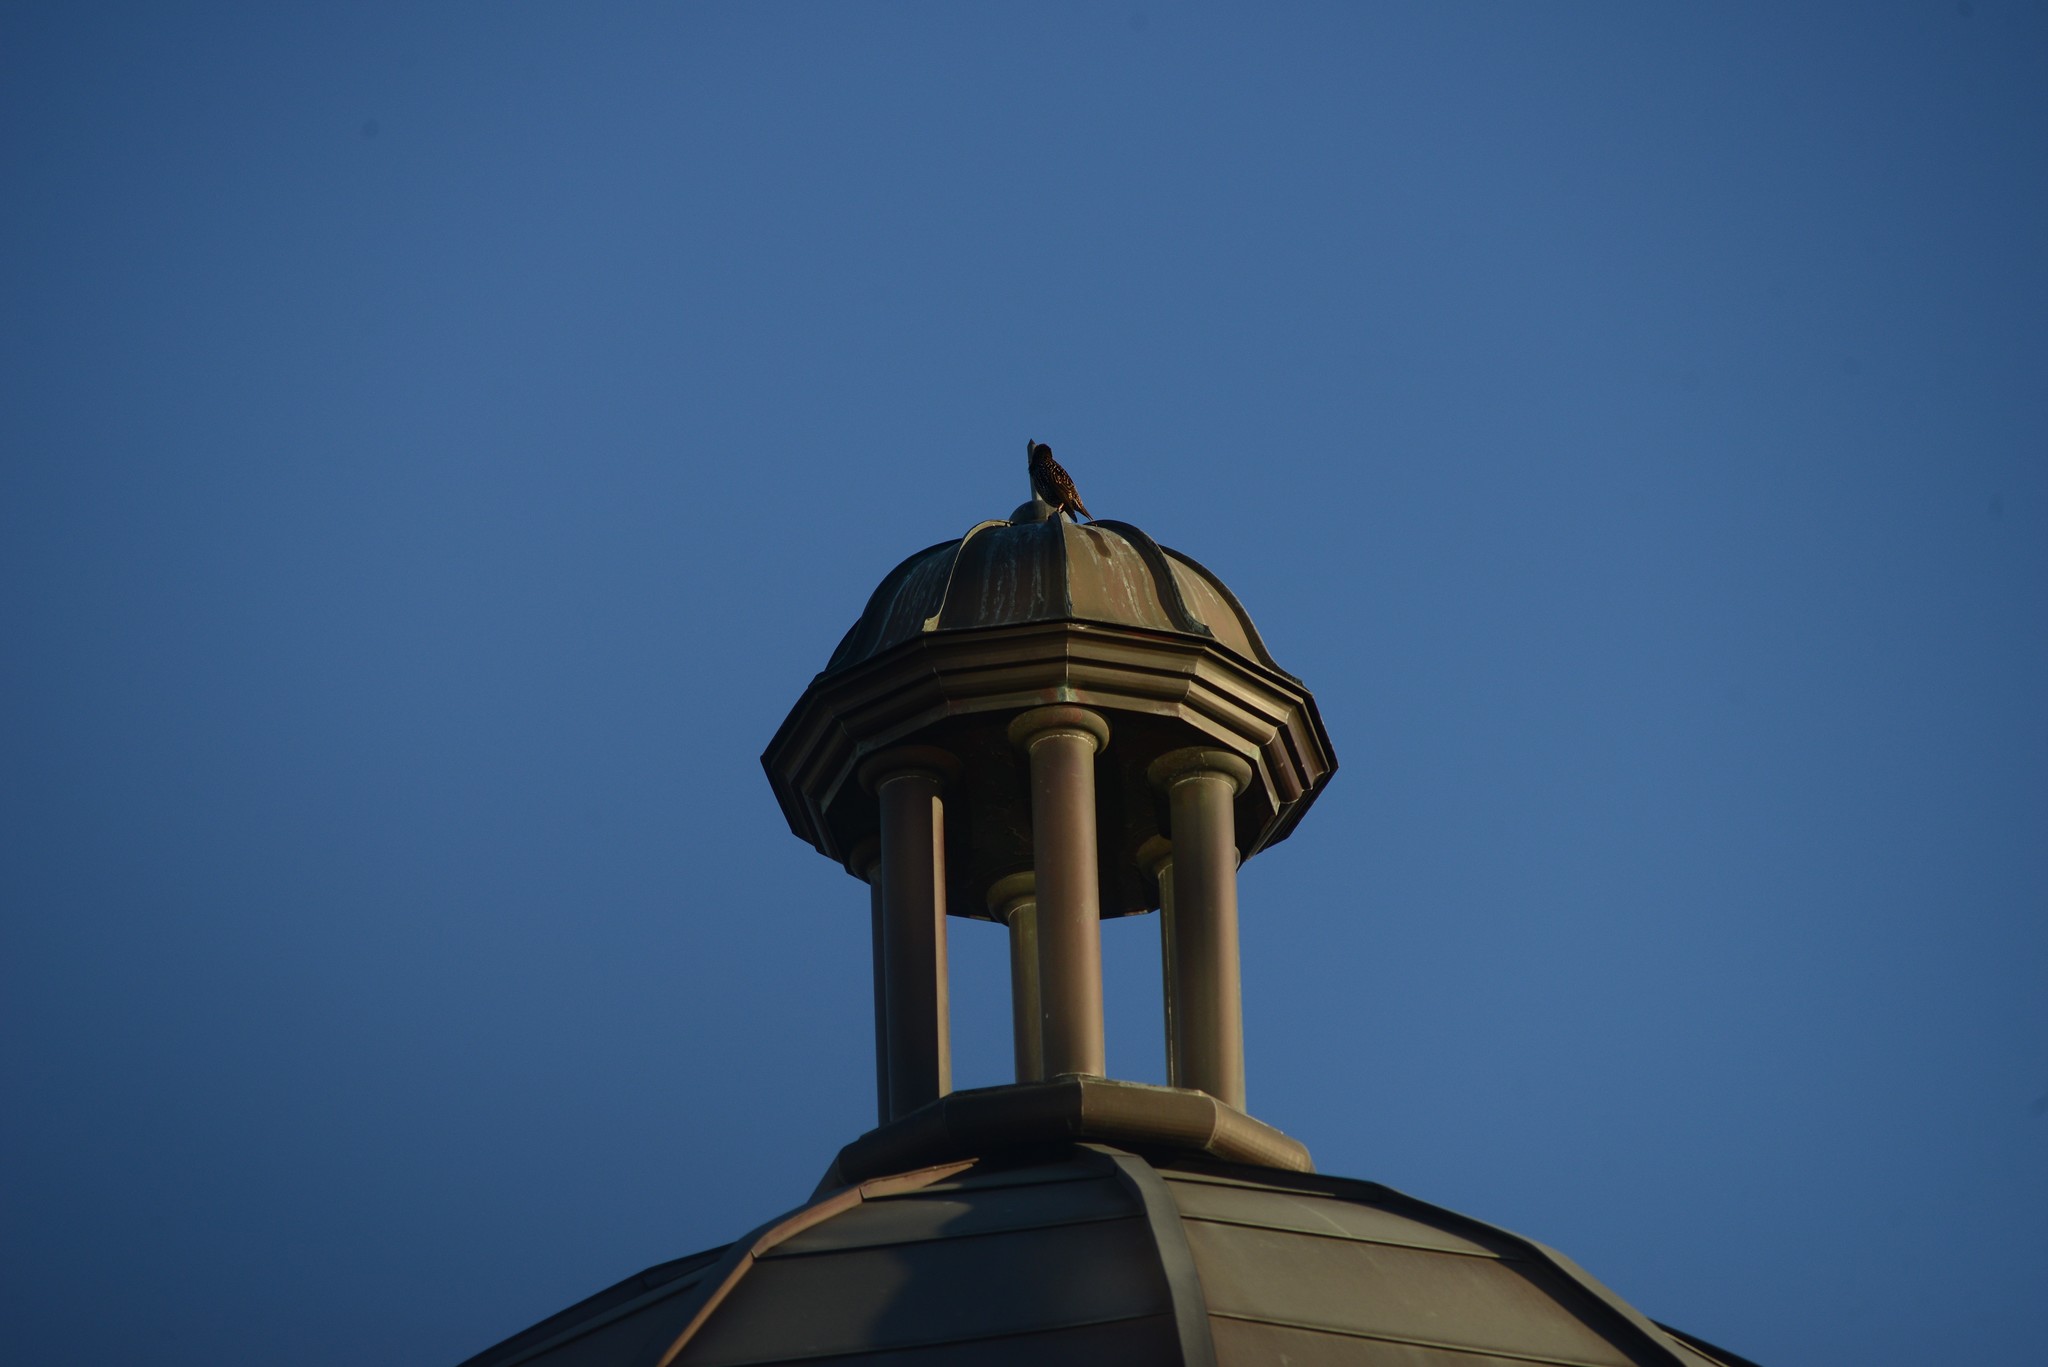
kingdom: Animalia
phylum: Chordata
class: Aves
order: Passeriformes
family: Sturnidae
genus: Sturnus
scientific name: Sturnus vulgaris
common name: Common starling
